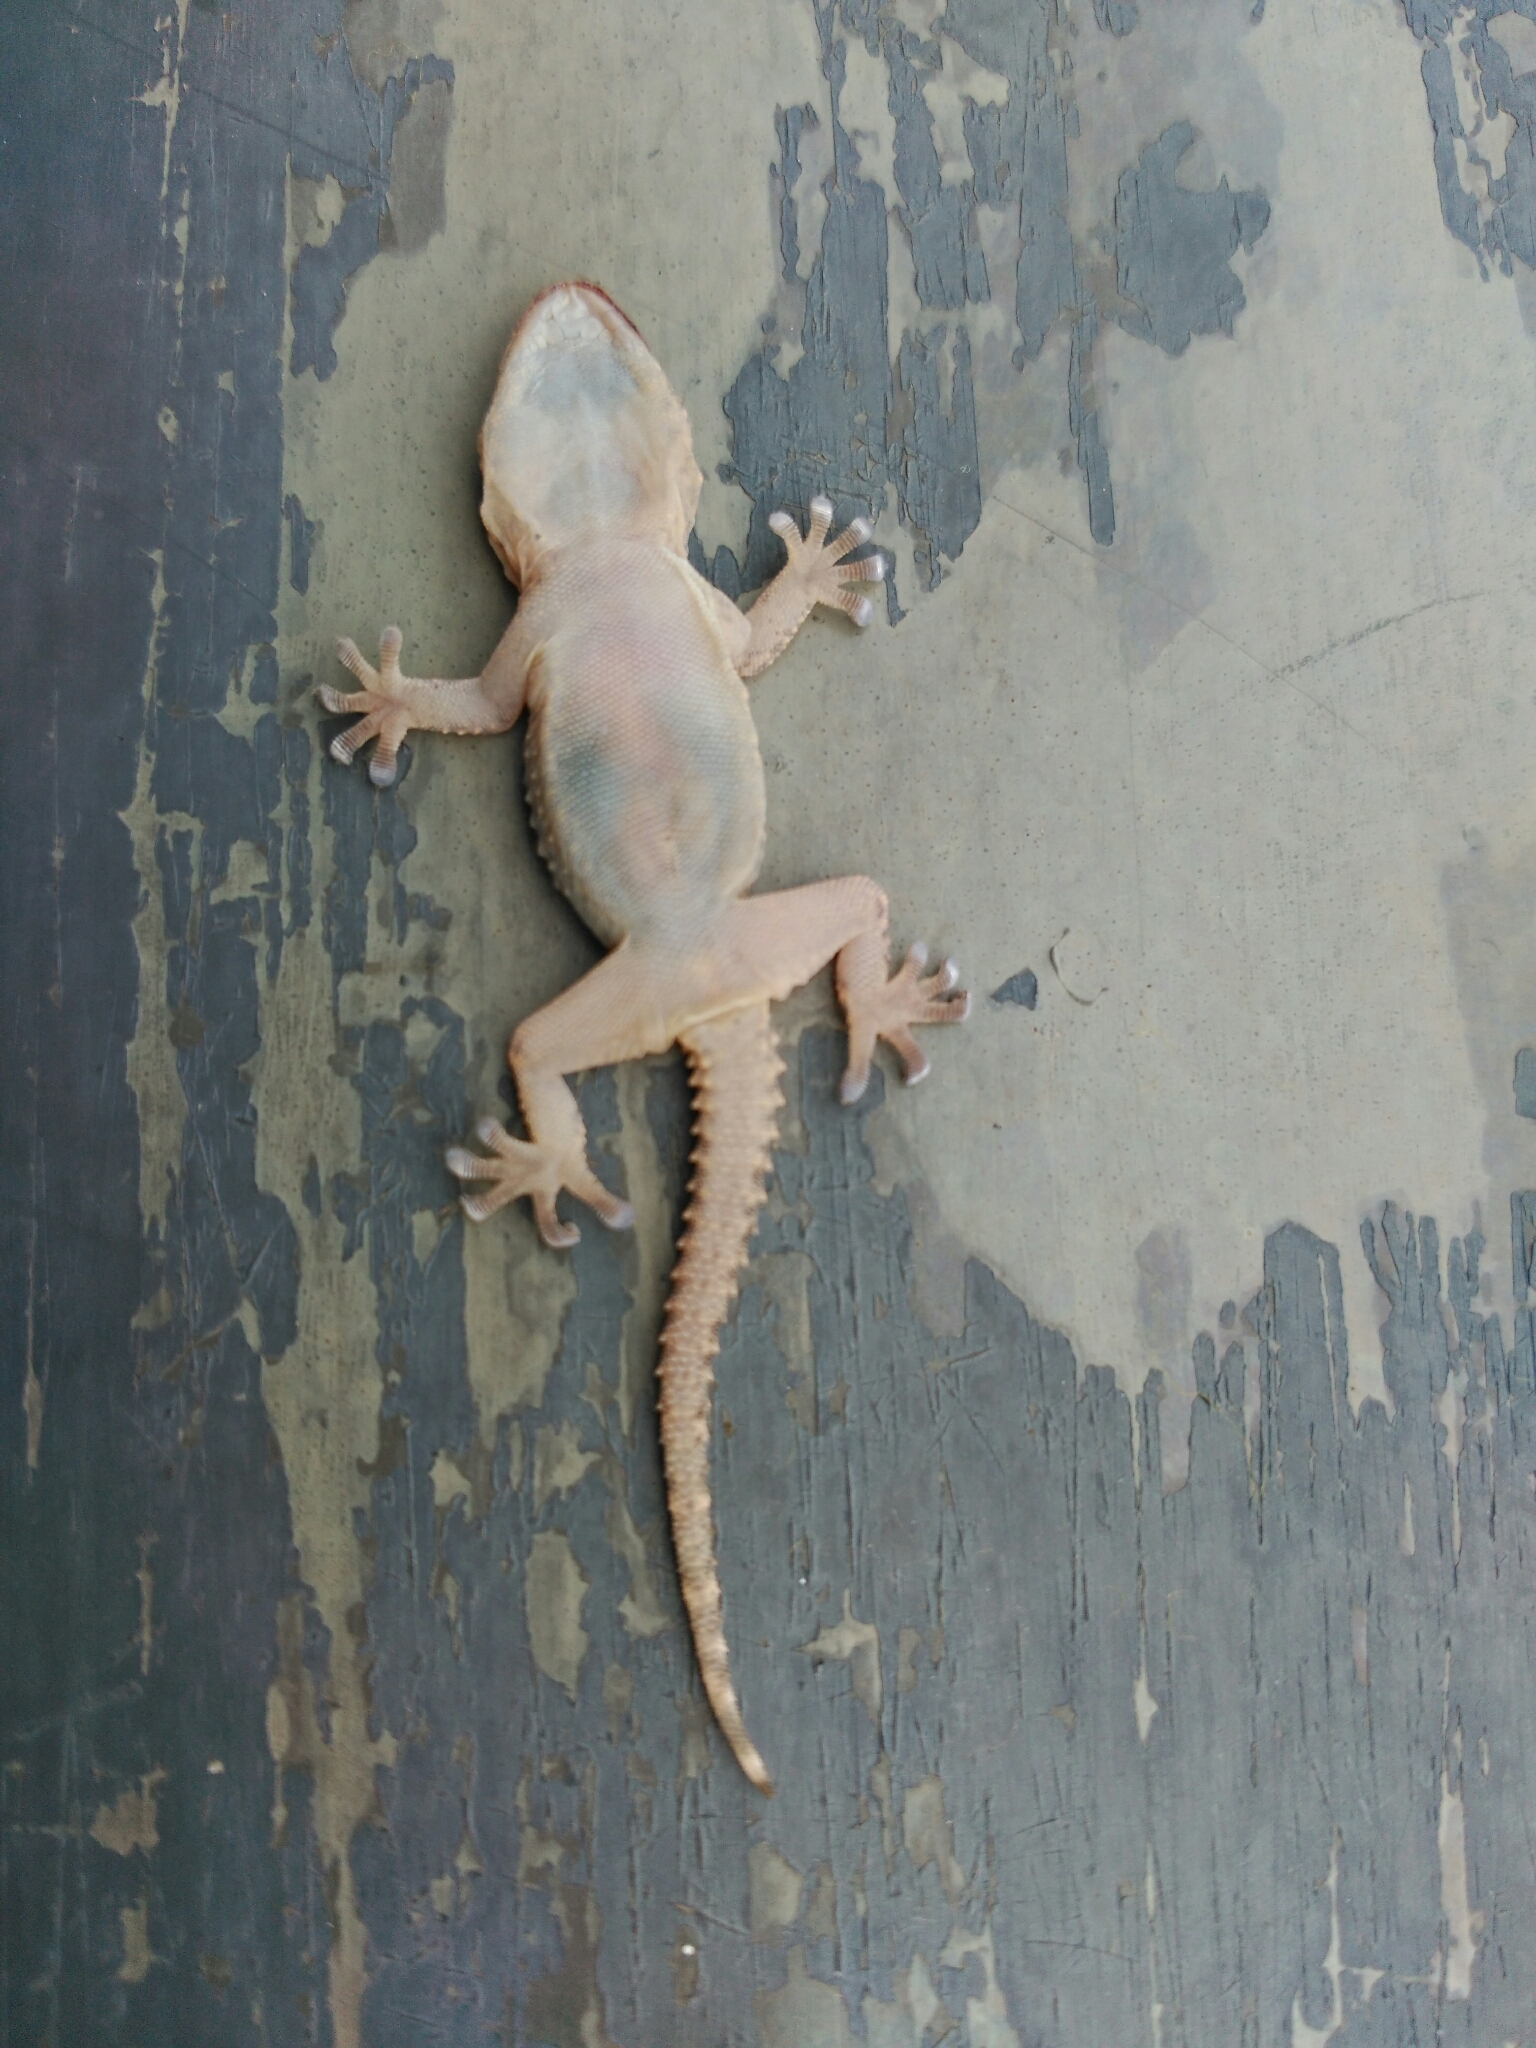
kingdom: Animalia
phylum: Chordata
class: Squamata
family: Phyllodactylidae
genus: Tarentola
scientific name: Tarentola mauritanica
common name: Moorish gecko
